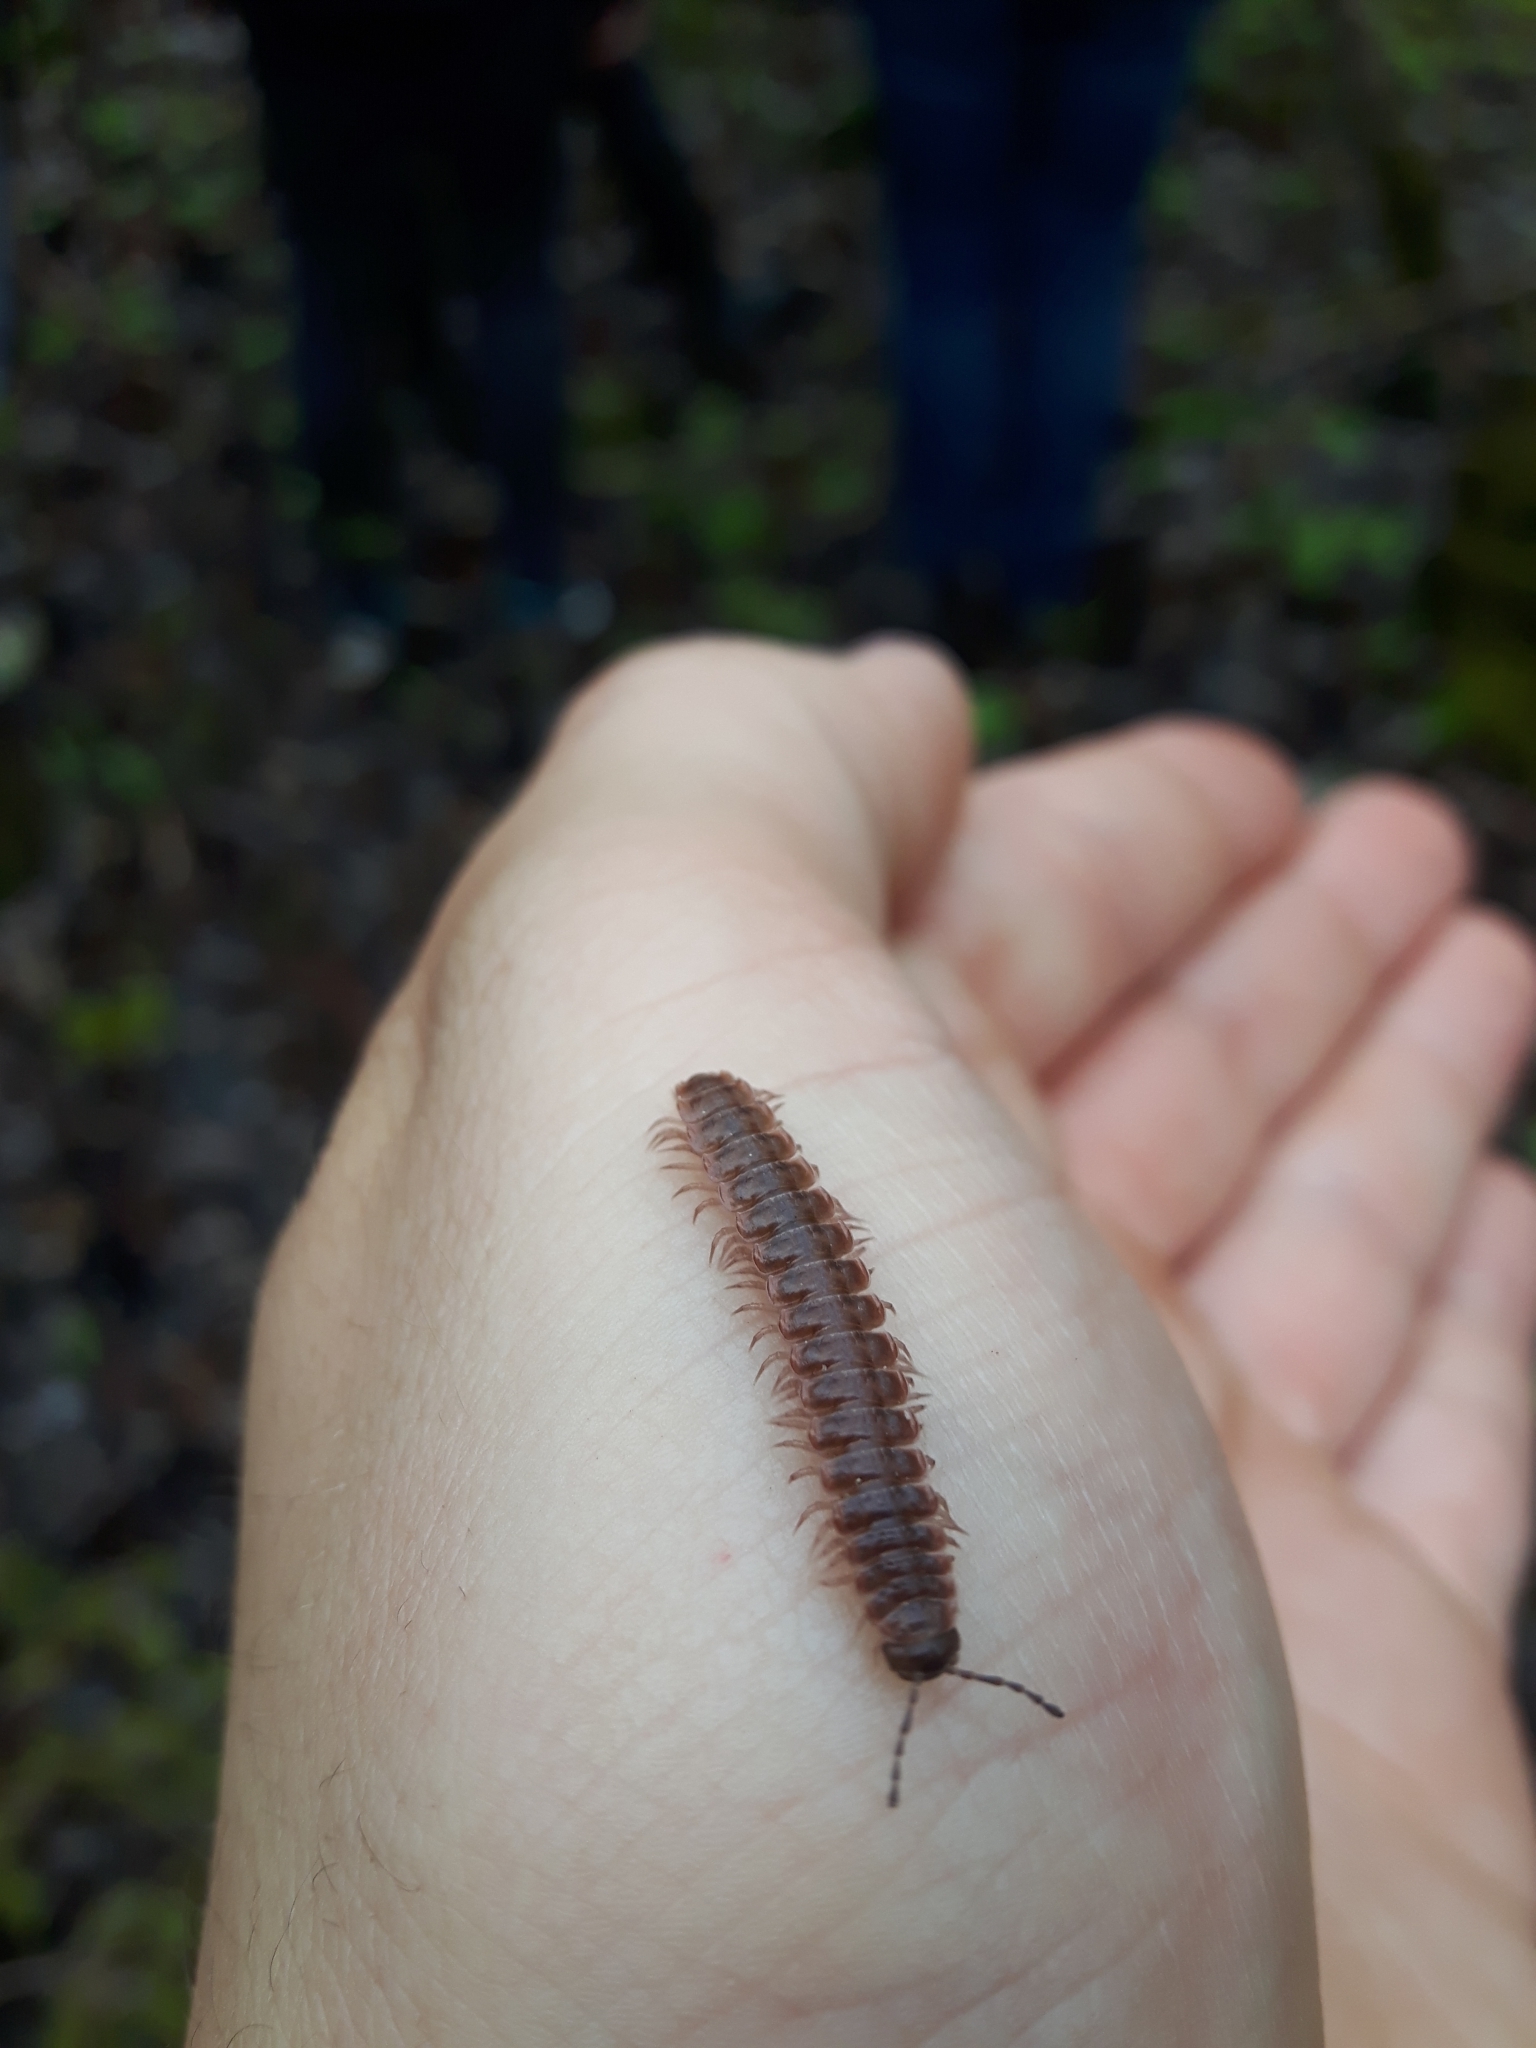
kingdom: Animalia
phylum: Arthropoda
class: Diplopoda
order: Polydesmida
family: Polydesmidae
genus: Pseudopolydesmus
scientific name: Pseudopolydesmus serratus
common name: Common pink flat-back millipede
